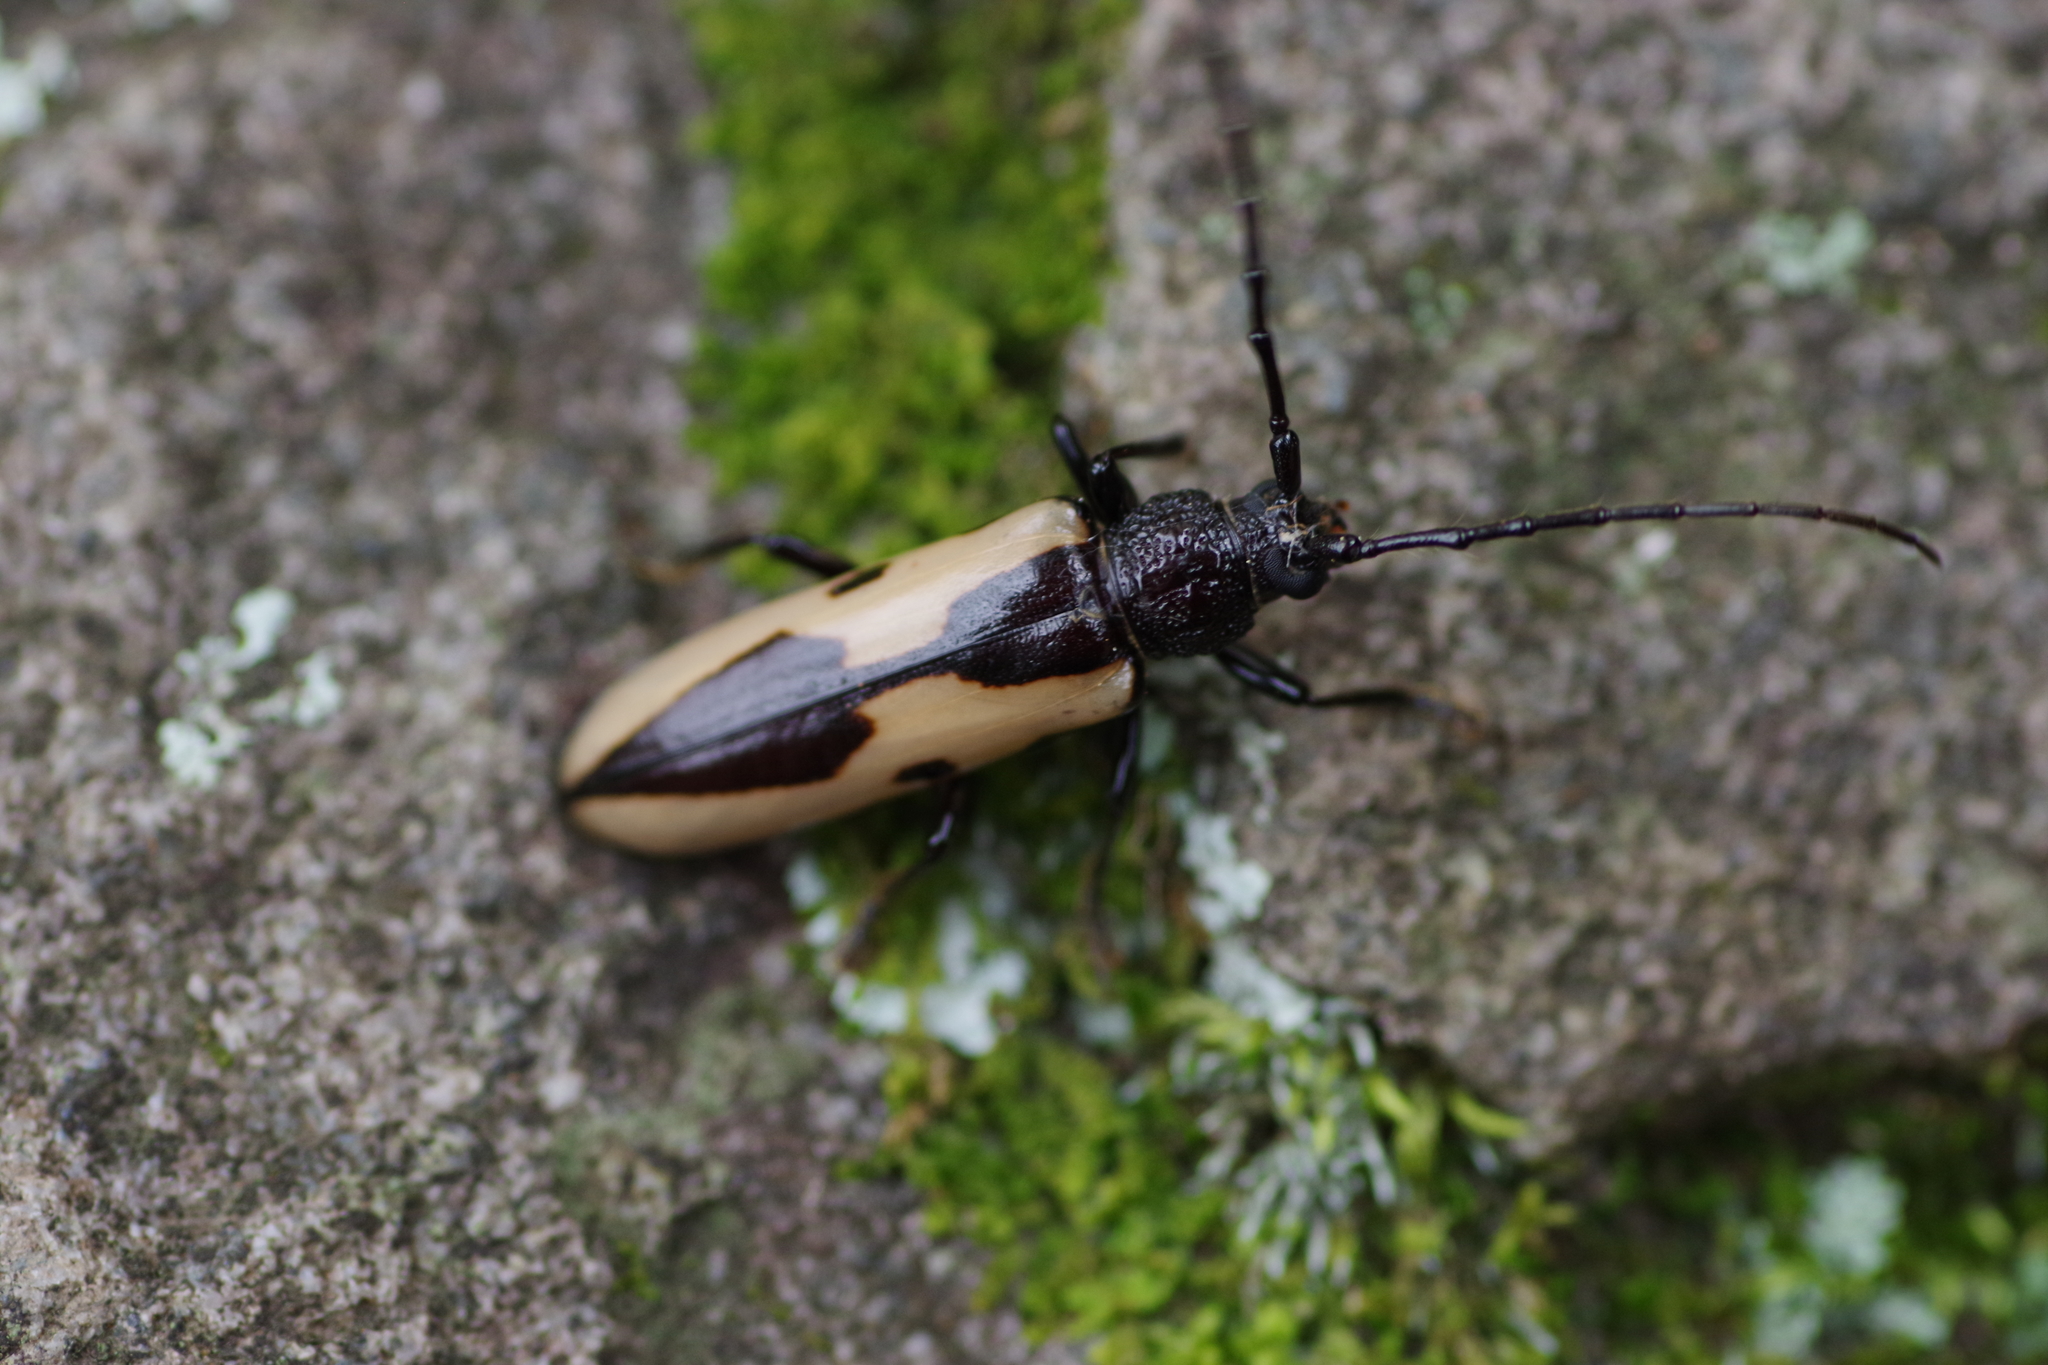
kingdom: Animalia
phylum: Arthropoda
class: Insecta
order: Coleoptera
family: Cerambycidae
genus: Poeciloxestia
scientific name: Poeciloxestia lanceolata
